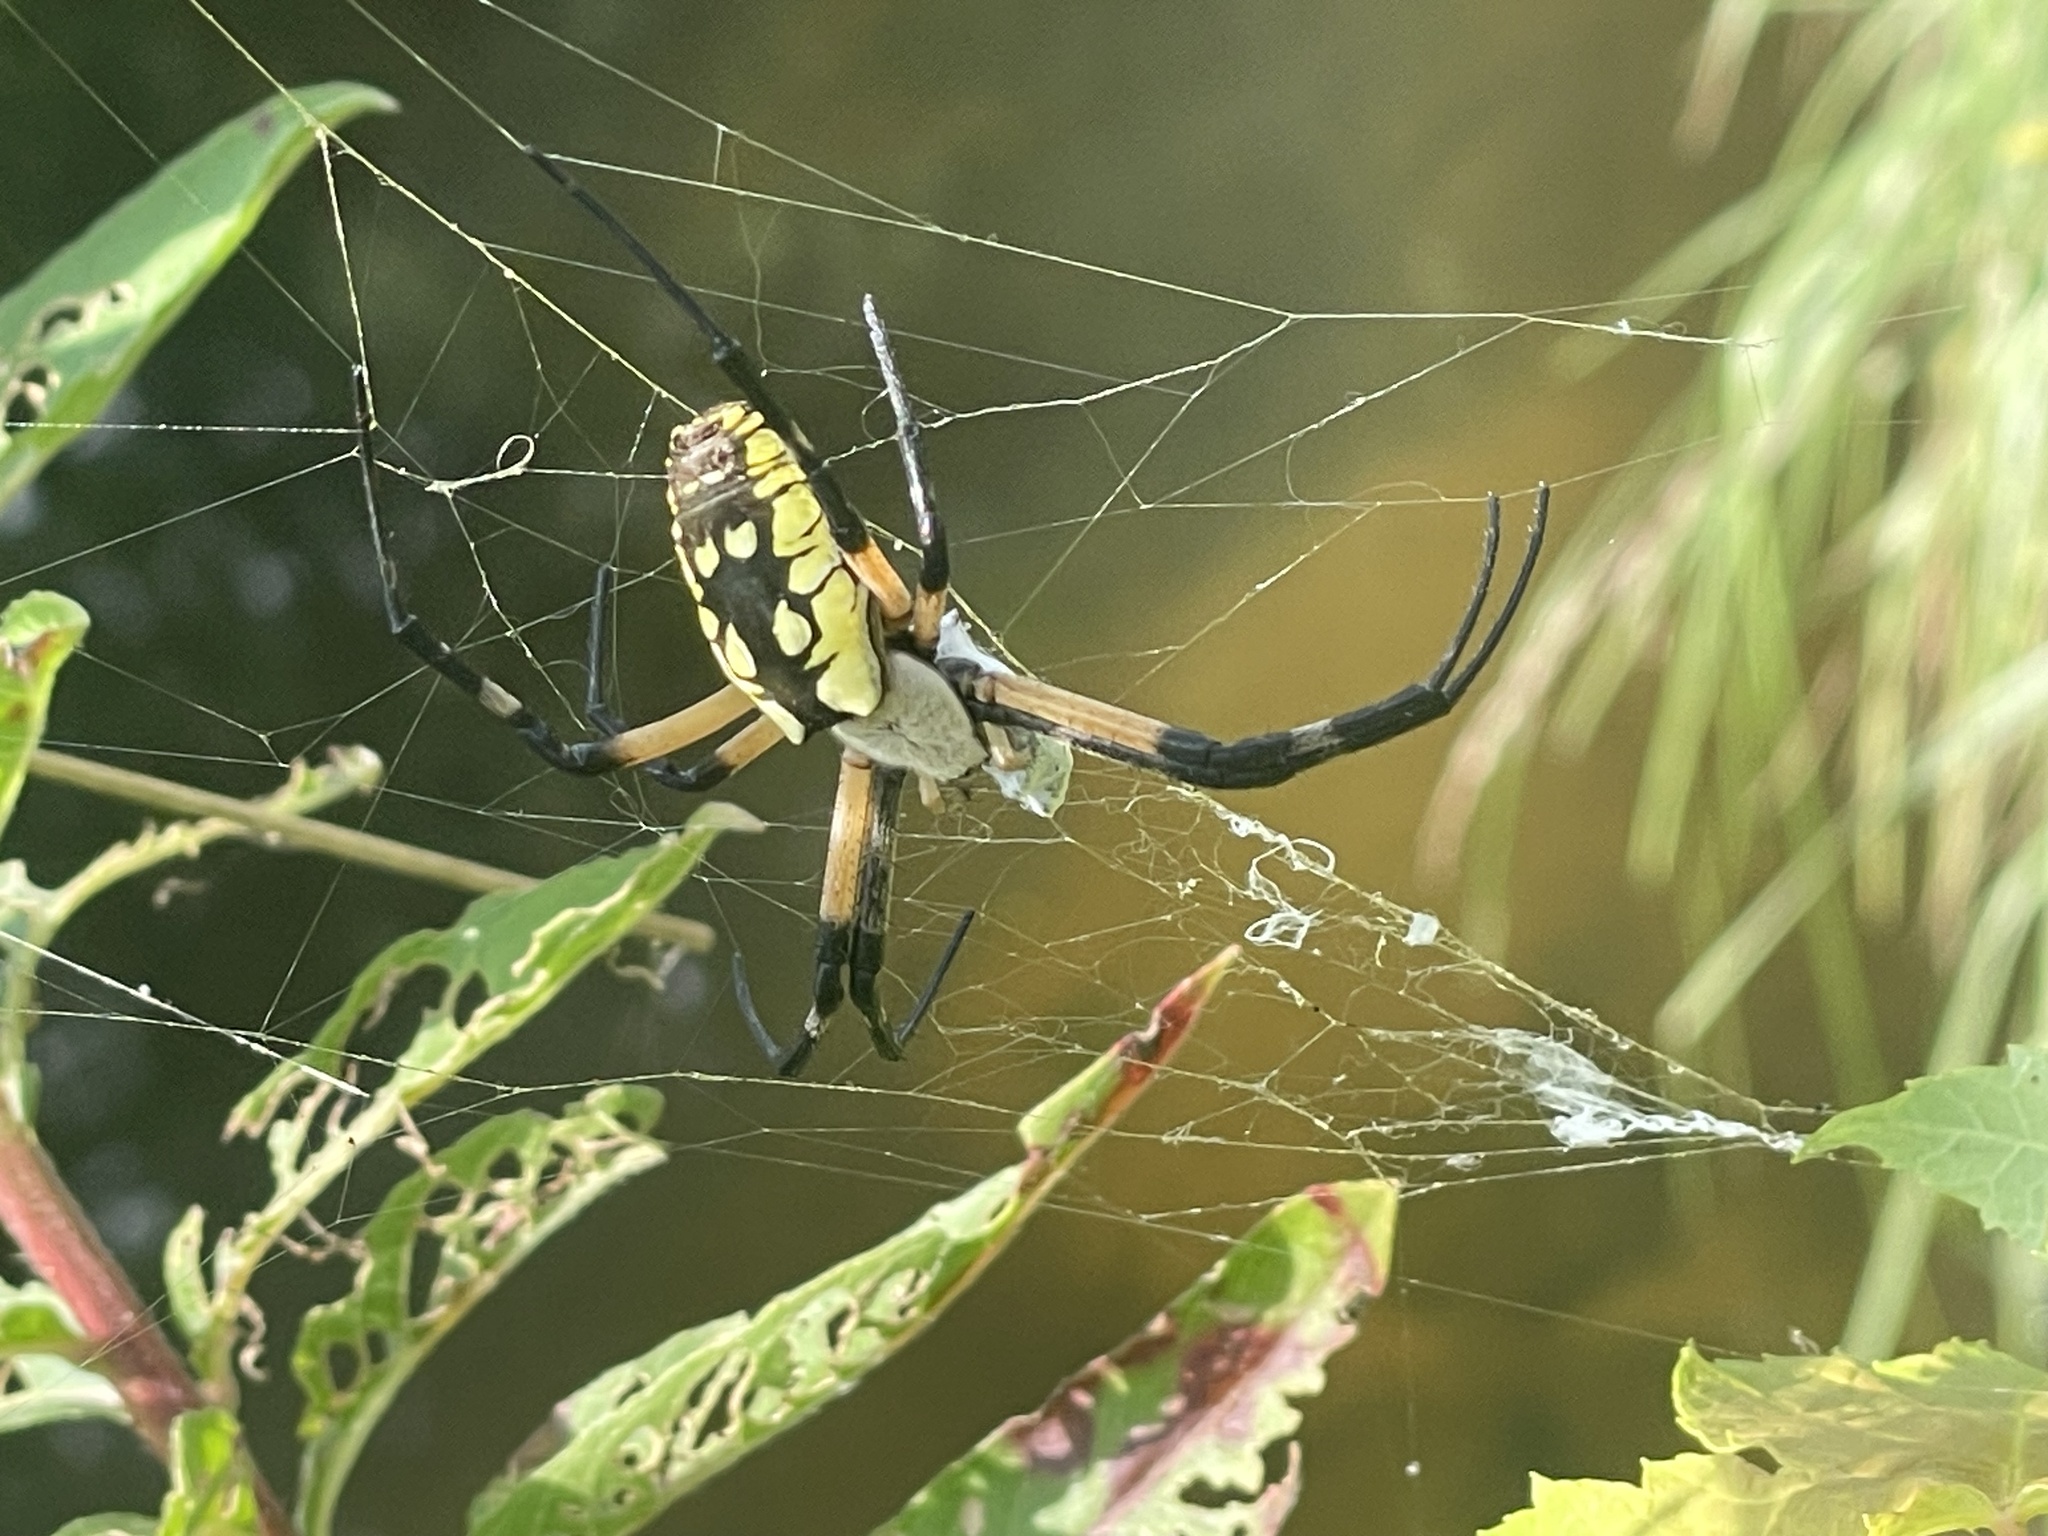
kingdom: Animalia
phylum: Arthropoda
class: Arachnida
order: Araneae
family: Araneidae
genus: Argiope
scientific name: Argiope aurantia
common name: Orb weavers
